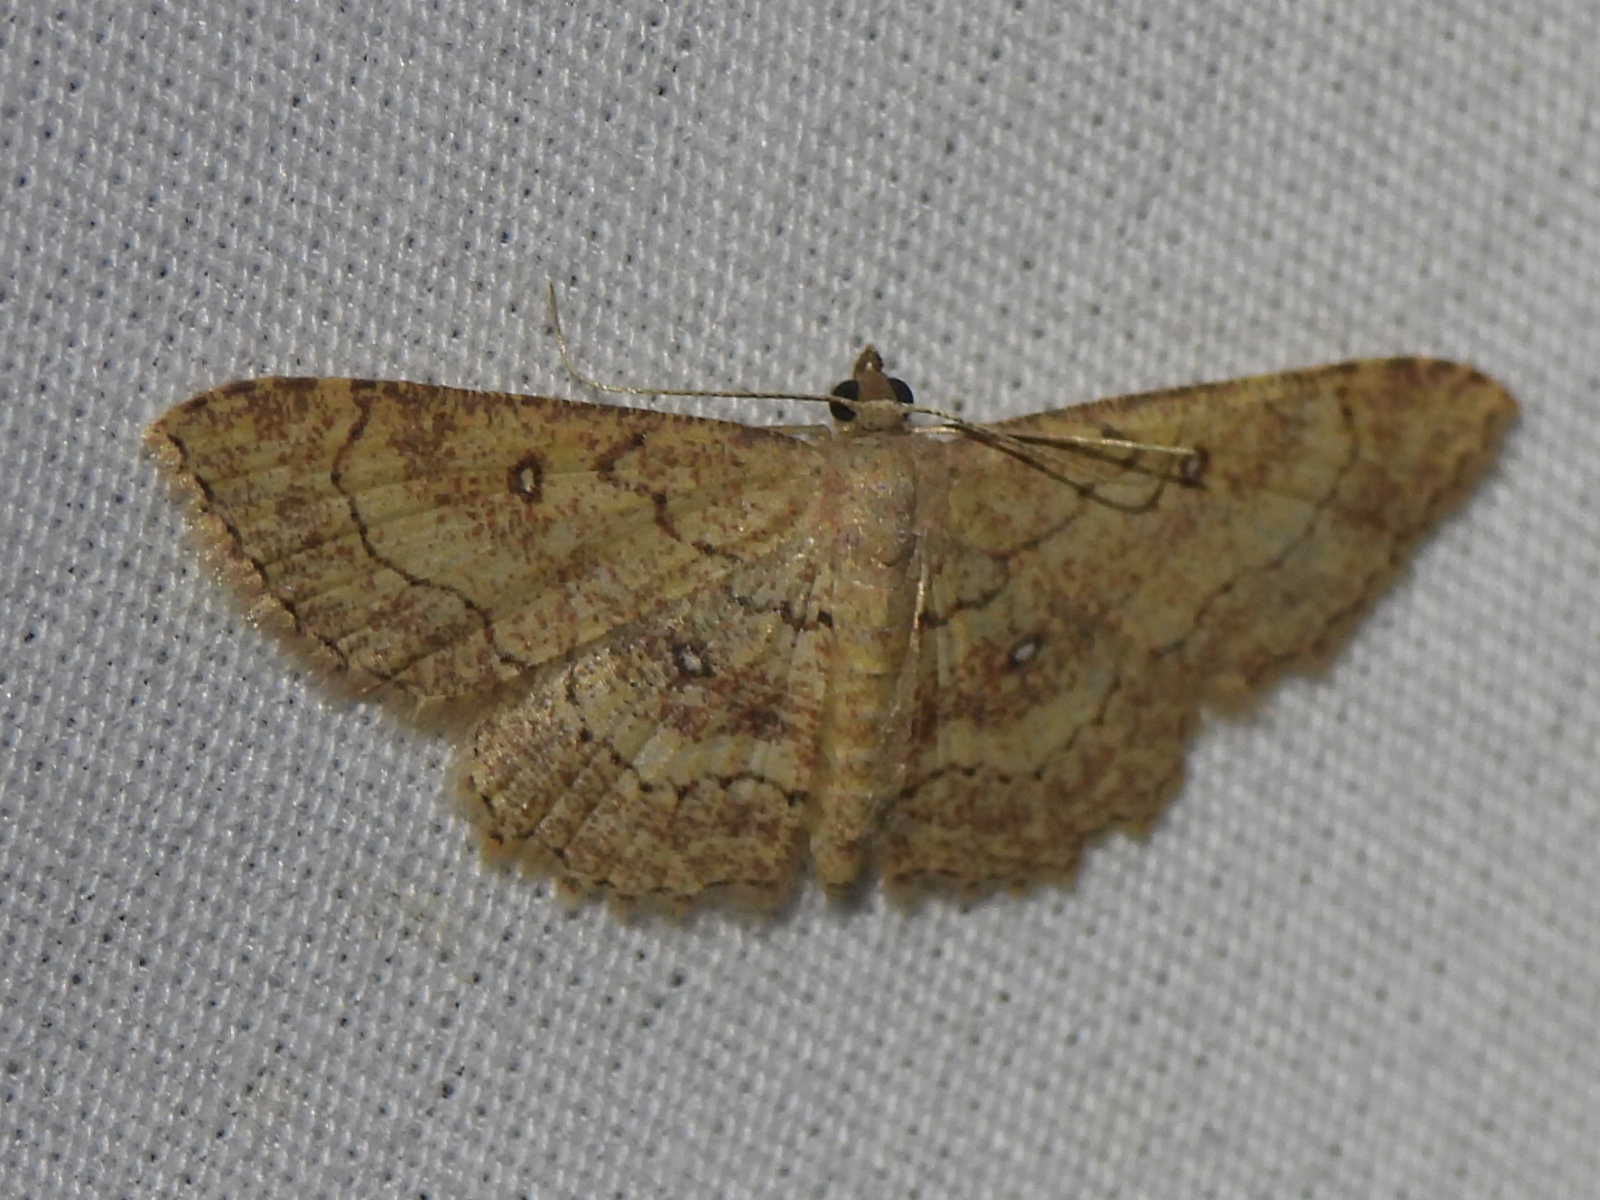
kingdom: Animalia
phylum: Arthropoda
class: Insecta
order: Lepidoptera
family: Geometridae
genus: Cyclophora
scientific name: Cyclophora nanaria
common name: Cankerworm
